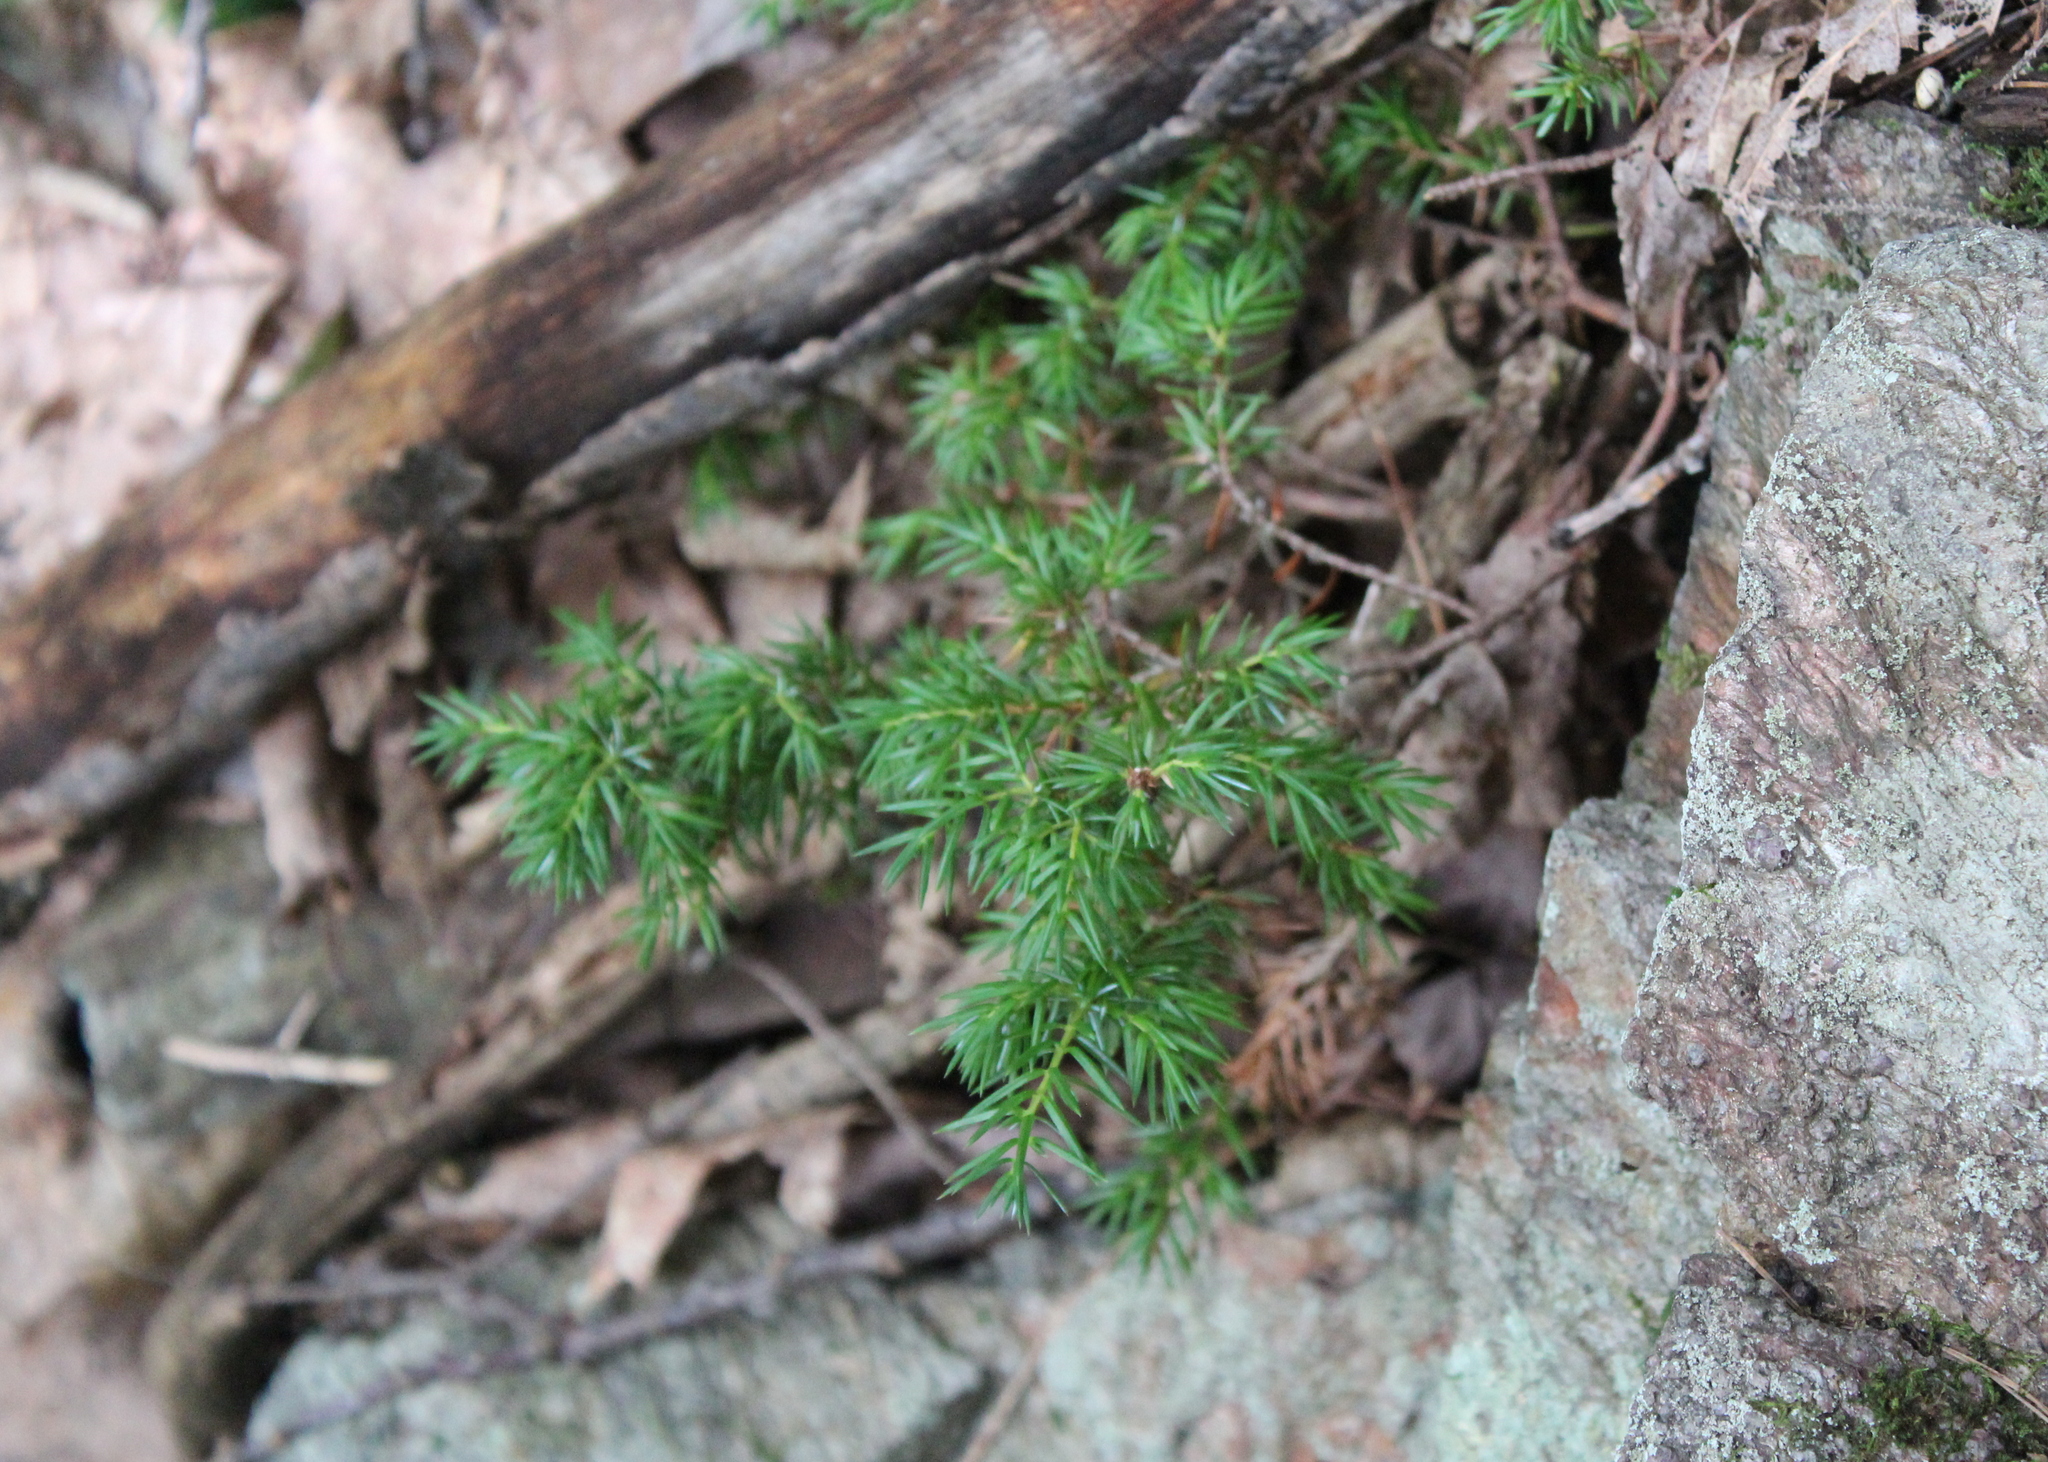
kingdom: Plantae
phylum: Tracheophyta
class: Pinopsida
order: Pinales
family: Cupressaceae
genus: Juniperus
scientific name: Juniperus communis
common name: Common juniper
